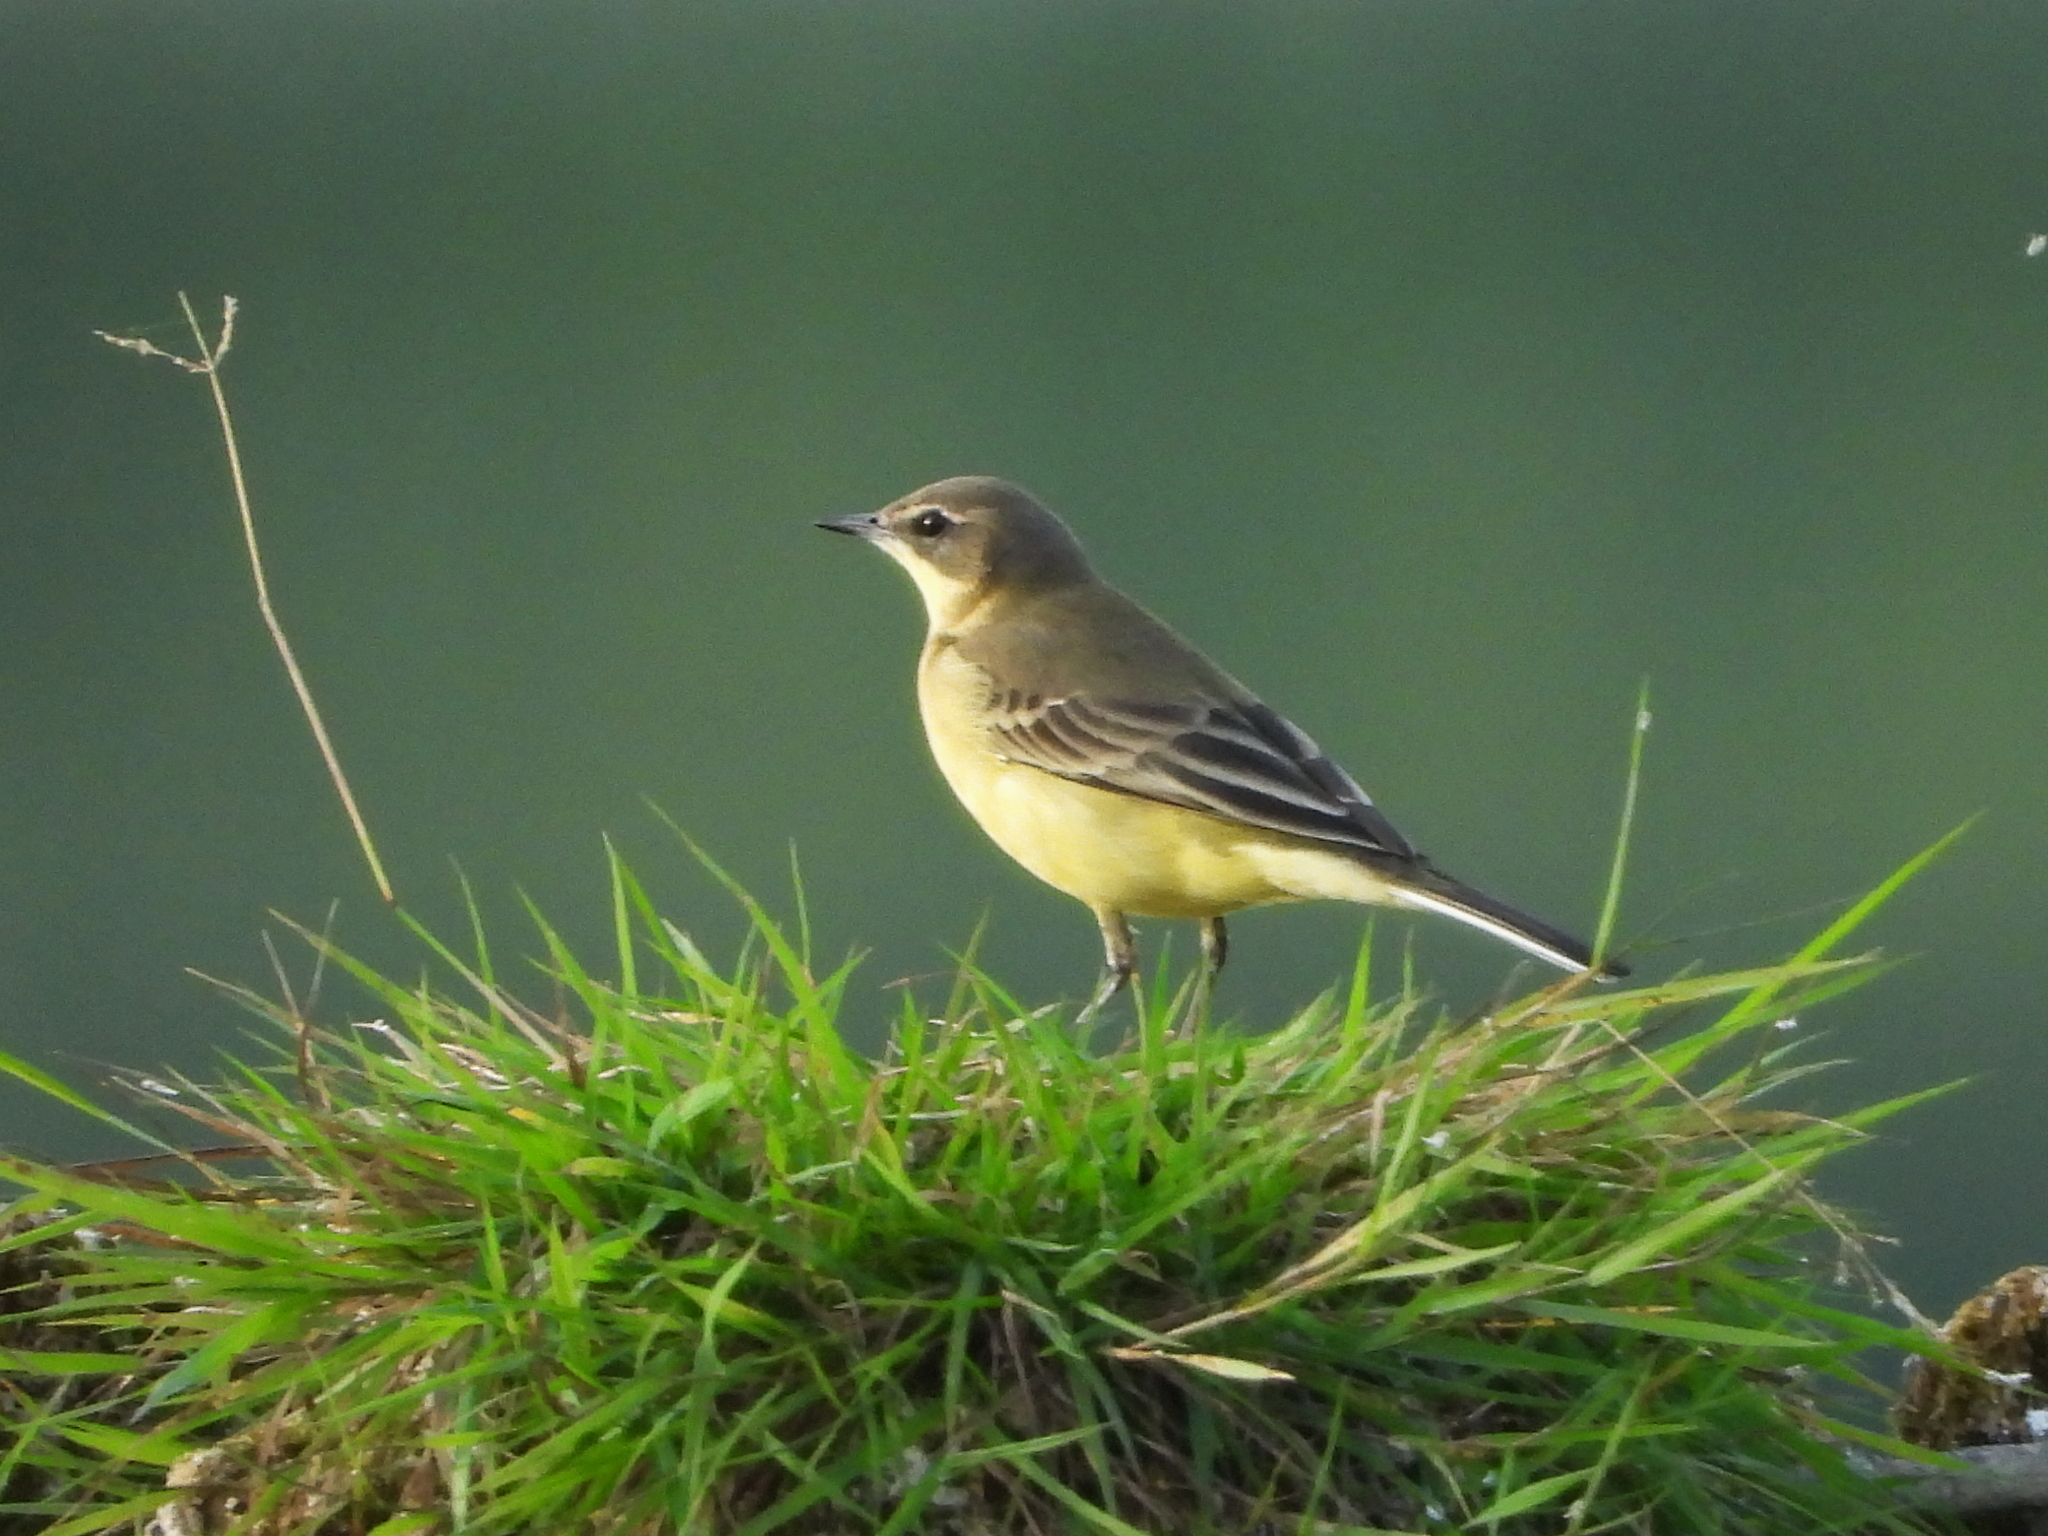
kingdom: Animalia
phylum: Chordata
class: Aves
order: Passeriformes
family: Motacillidae
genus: Motacilla
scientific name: Motacilla flava
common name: Western yellow wagtail
